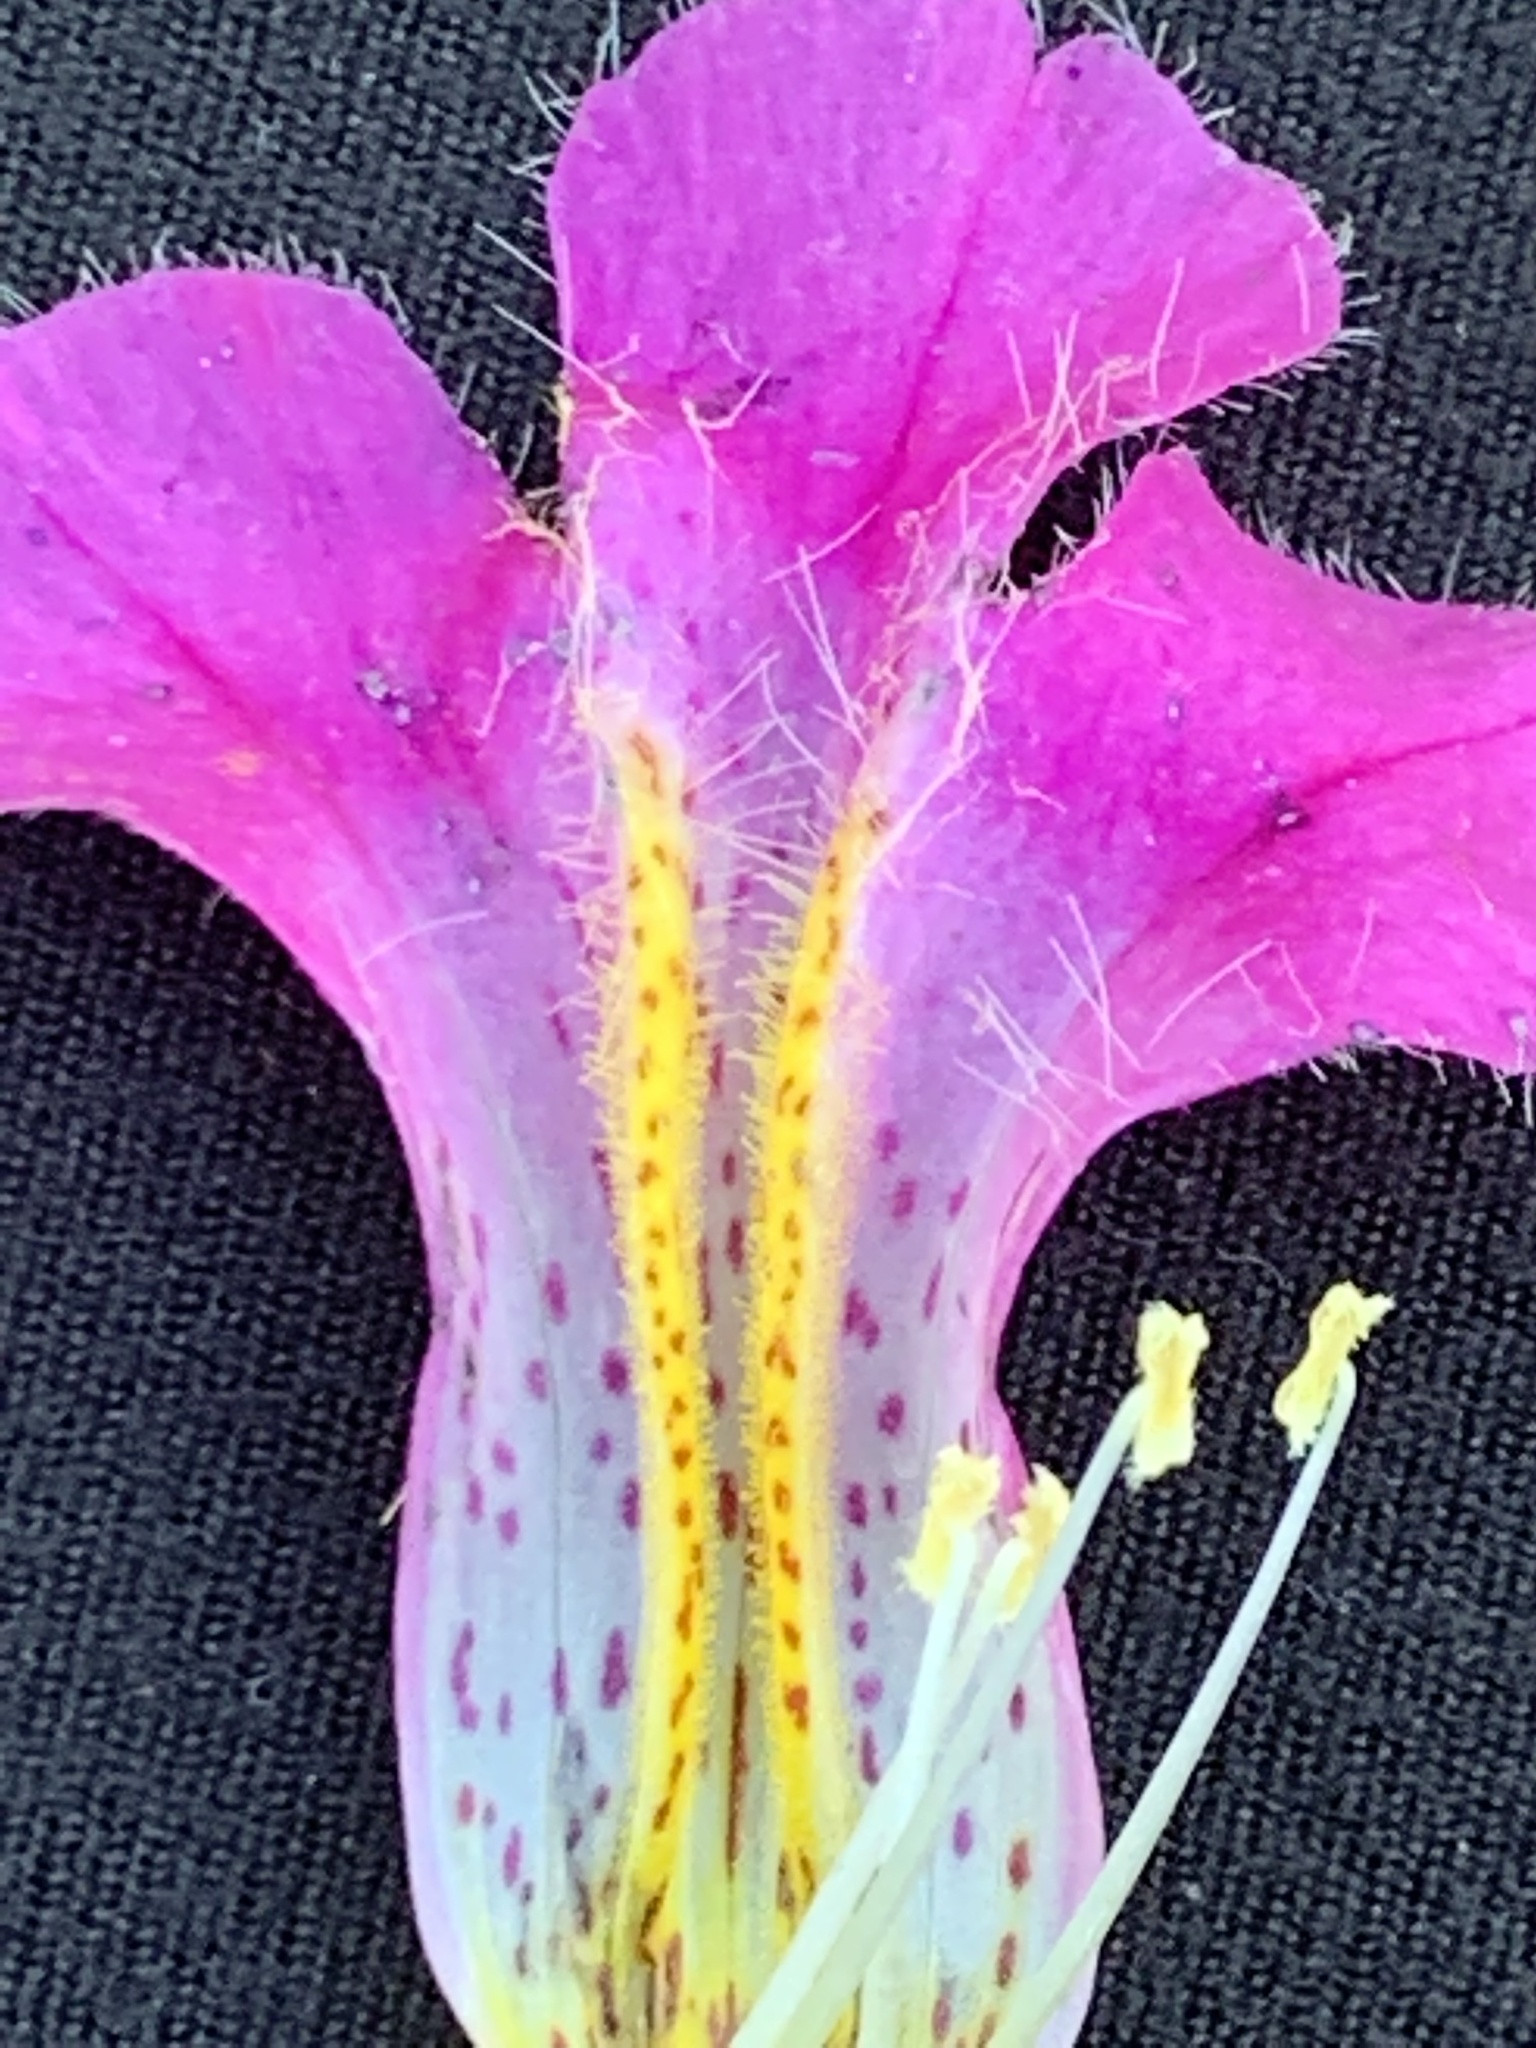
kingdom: Plantae
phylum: Tracheophyta
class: Magnoliopsida
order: Lamiales
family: Phrymaceae
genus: Erythranthe
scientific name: Erythranthe lewisii
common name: Lewis's monkey-flower
